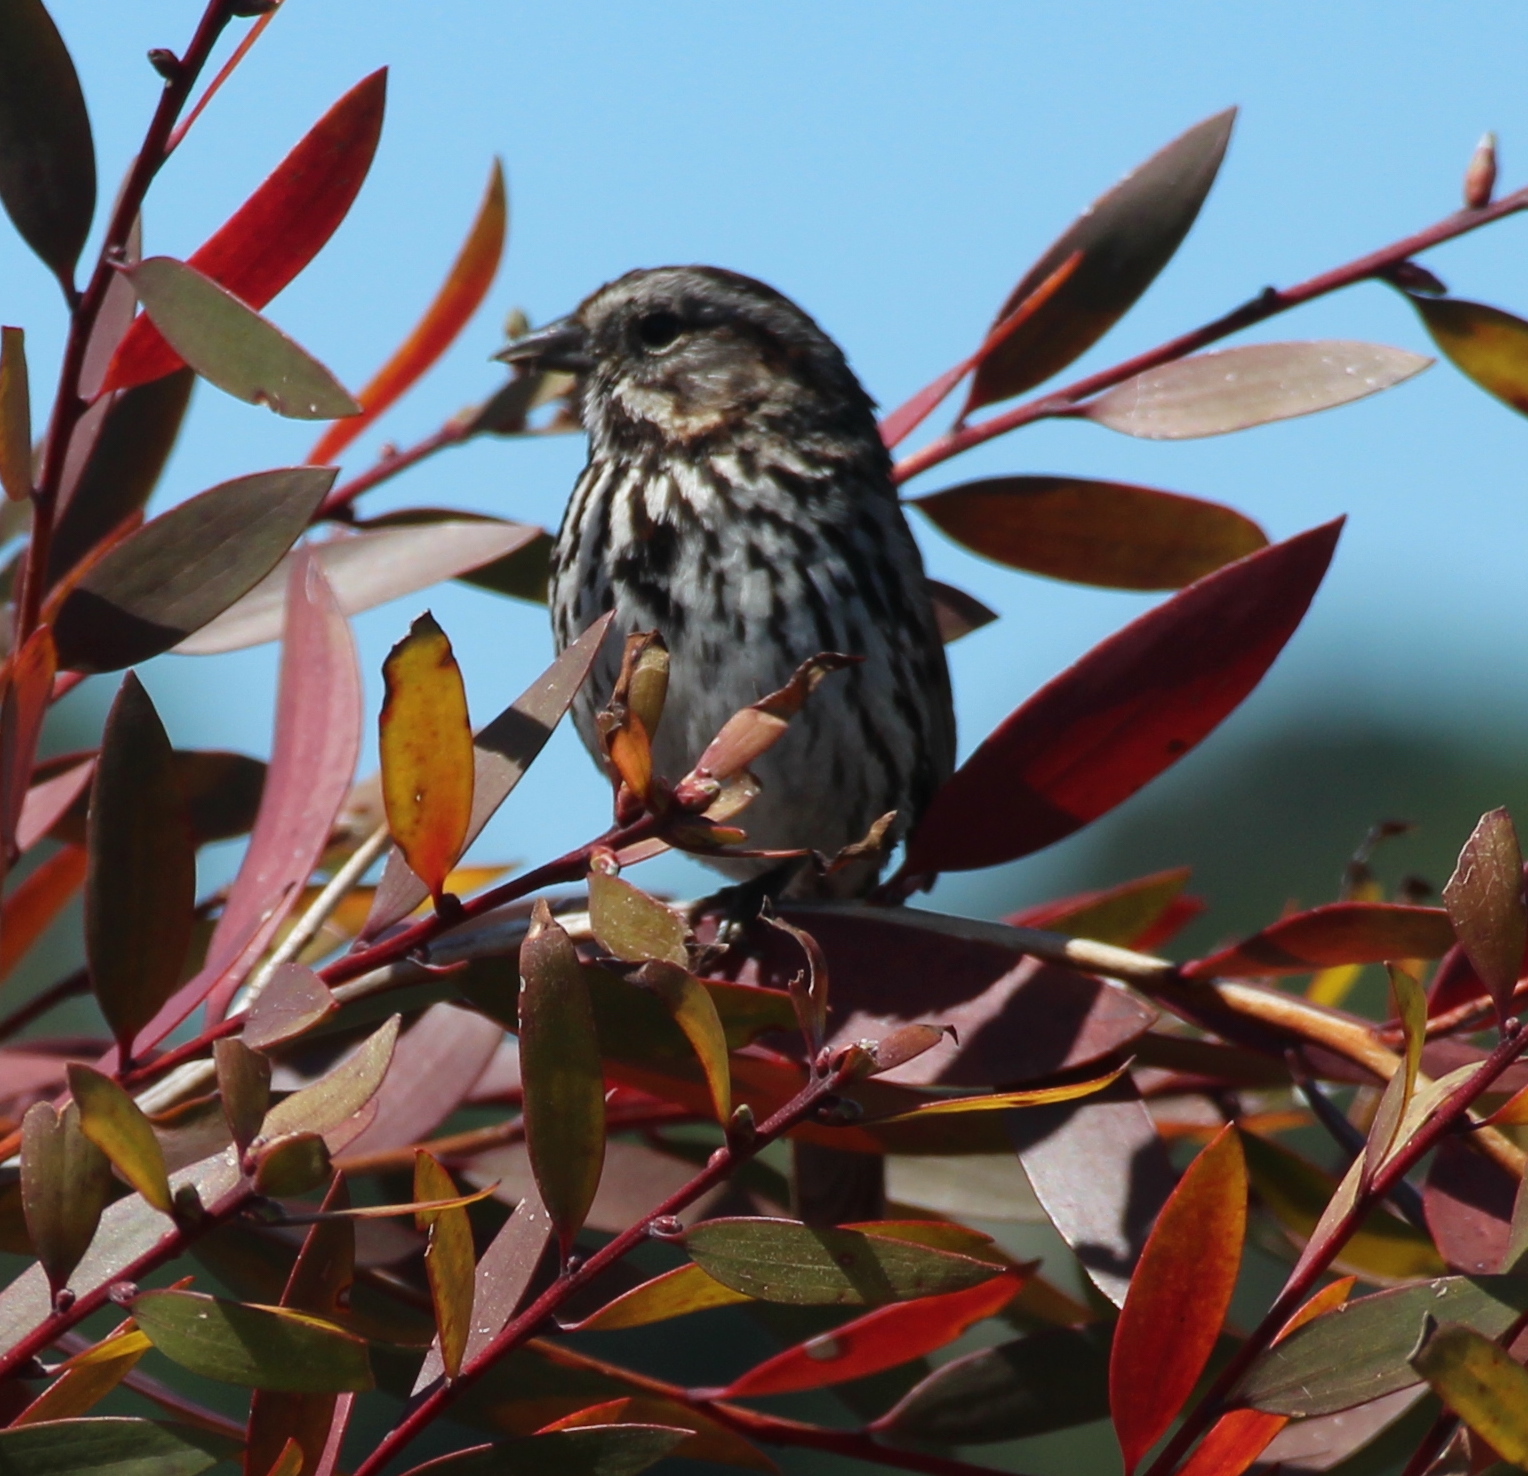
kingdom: Animalia
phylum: Chordata
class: Aves
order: Passeriformes
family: Passerellidae
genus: Melospiza
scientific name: Melospiza melodia
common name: Song sparrow
